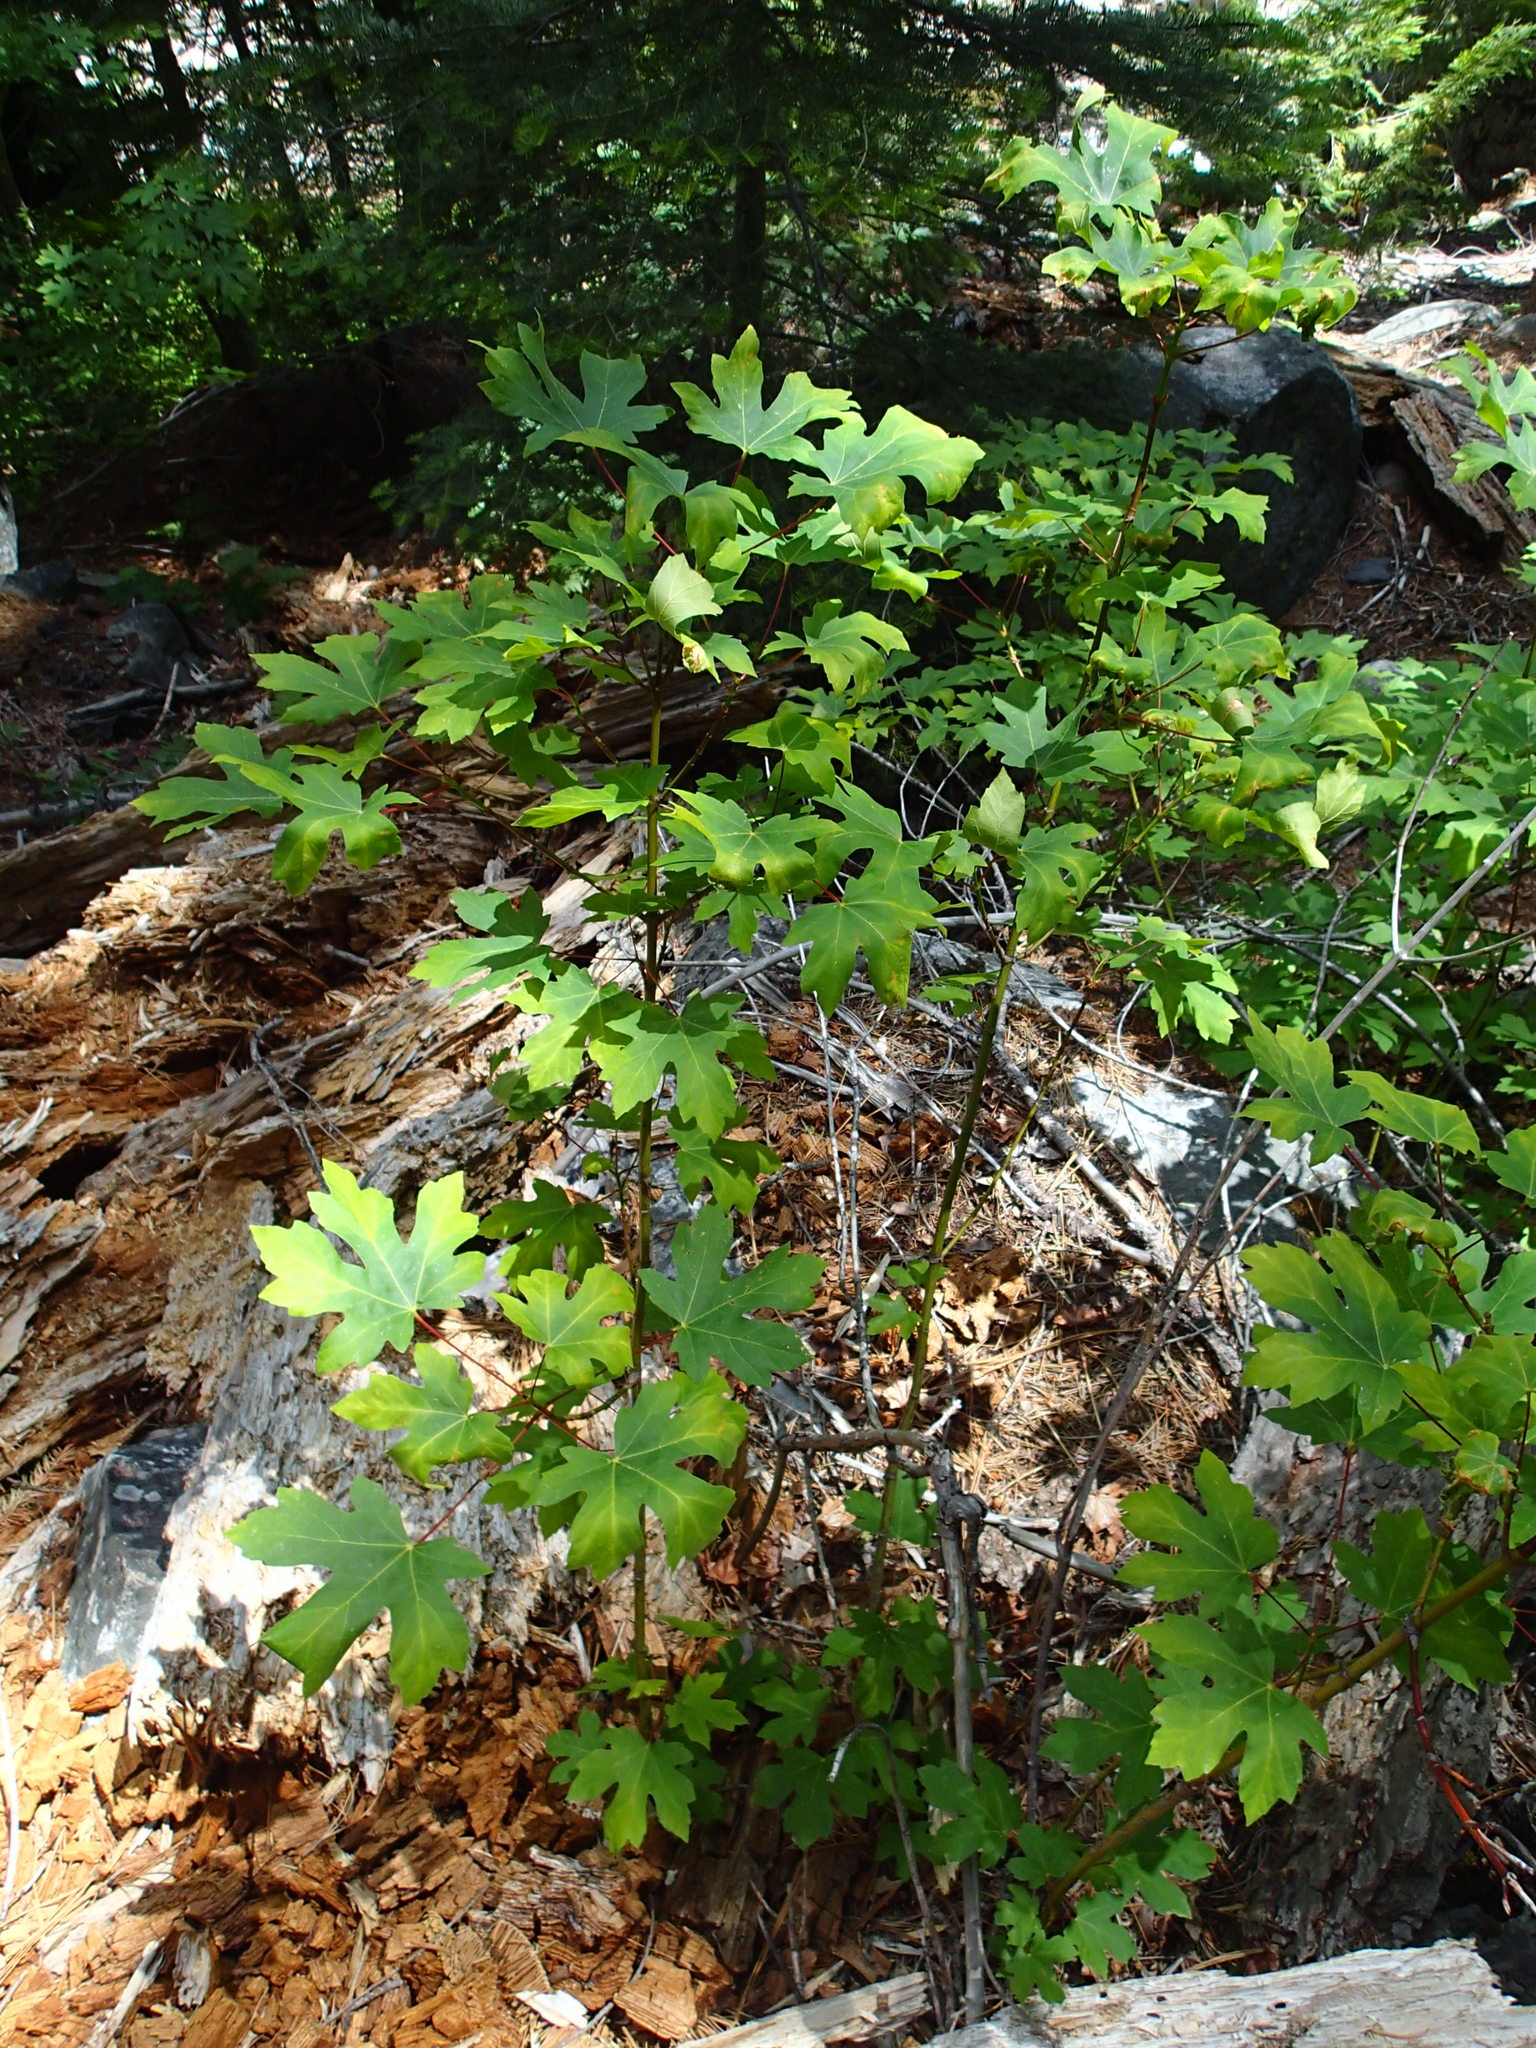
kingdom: Plantae
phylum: Tracheophyta
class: Magnoliopsida
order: Sapindales
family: Sapindaceae
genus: Acer
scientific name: Acer macrophyllum
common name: Oregon maple
